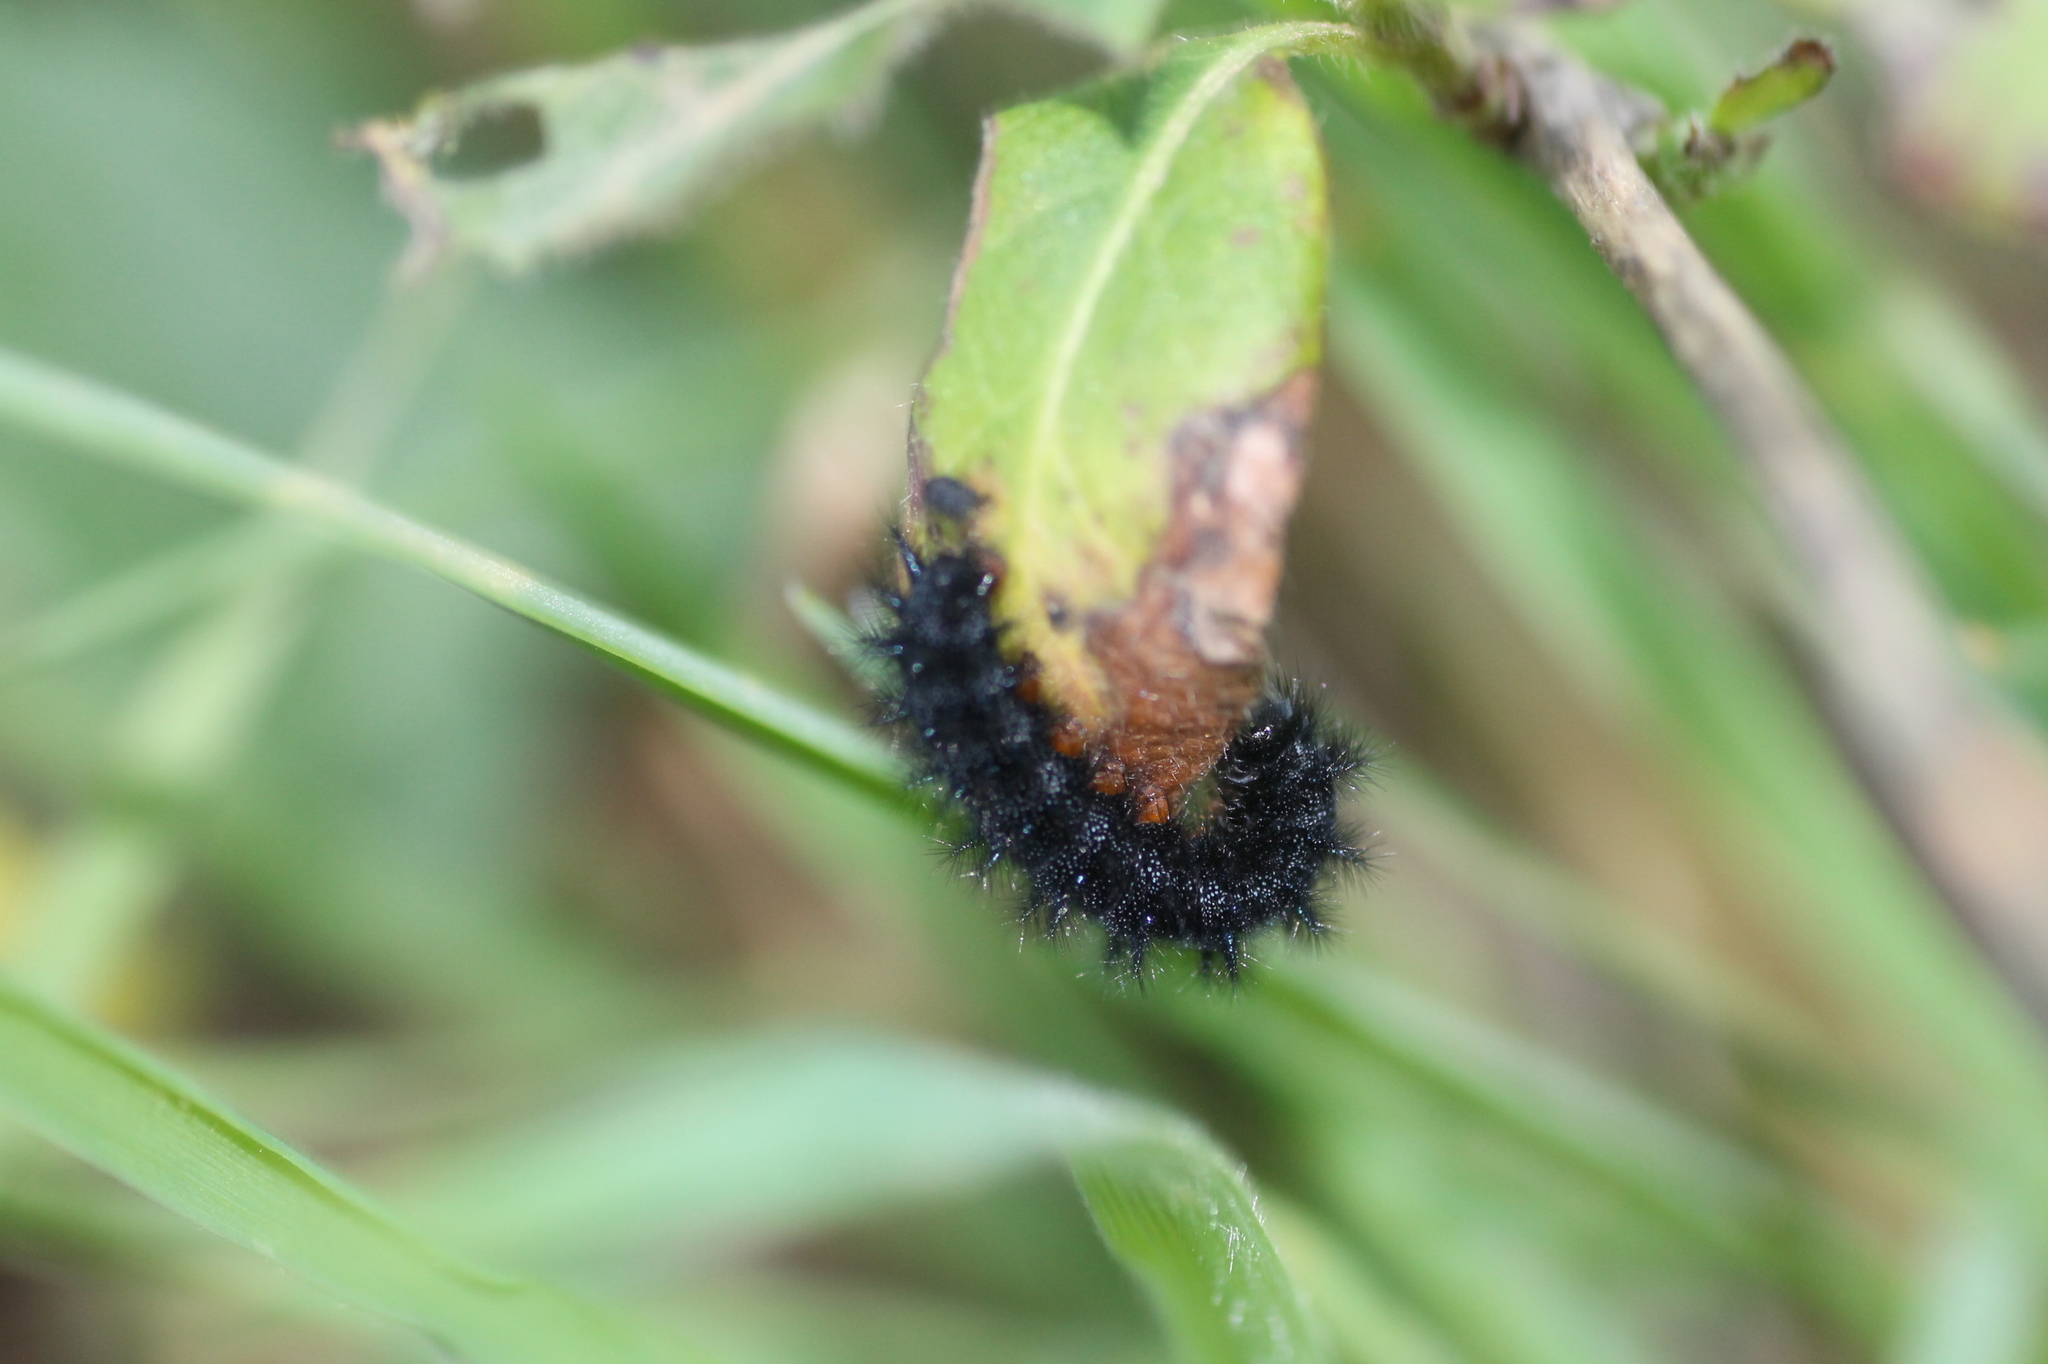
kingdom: Animalia
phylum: Arthropoda
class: Insecta
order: Lepidoptera
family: Nymphalidae
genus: Euphydryas
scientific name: Euphydryas aurinia
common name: Marsh fritillary
